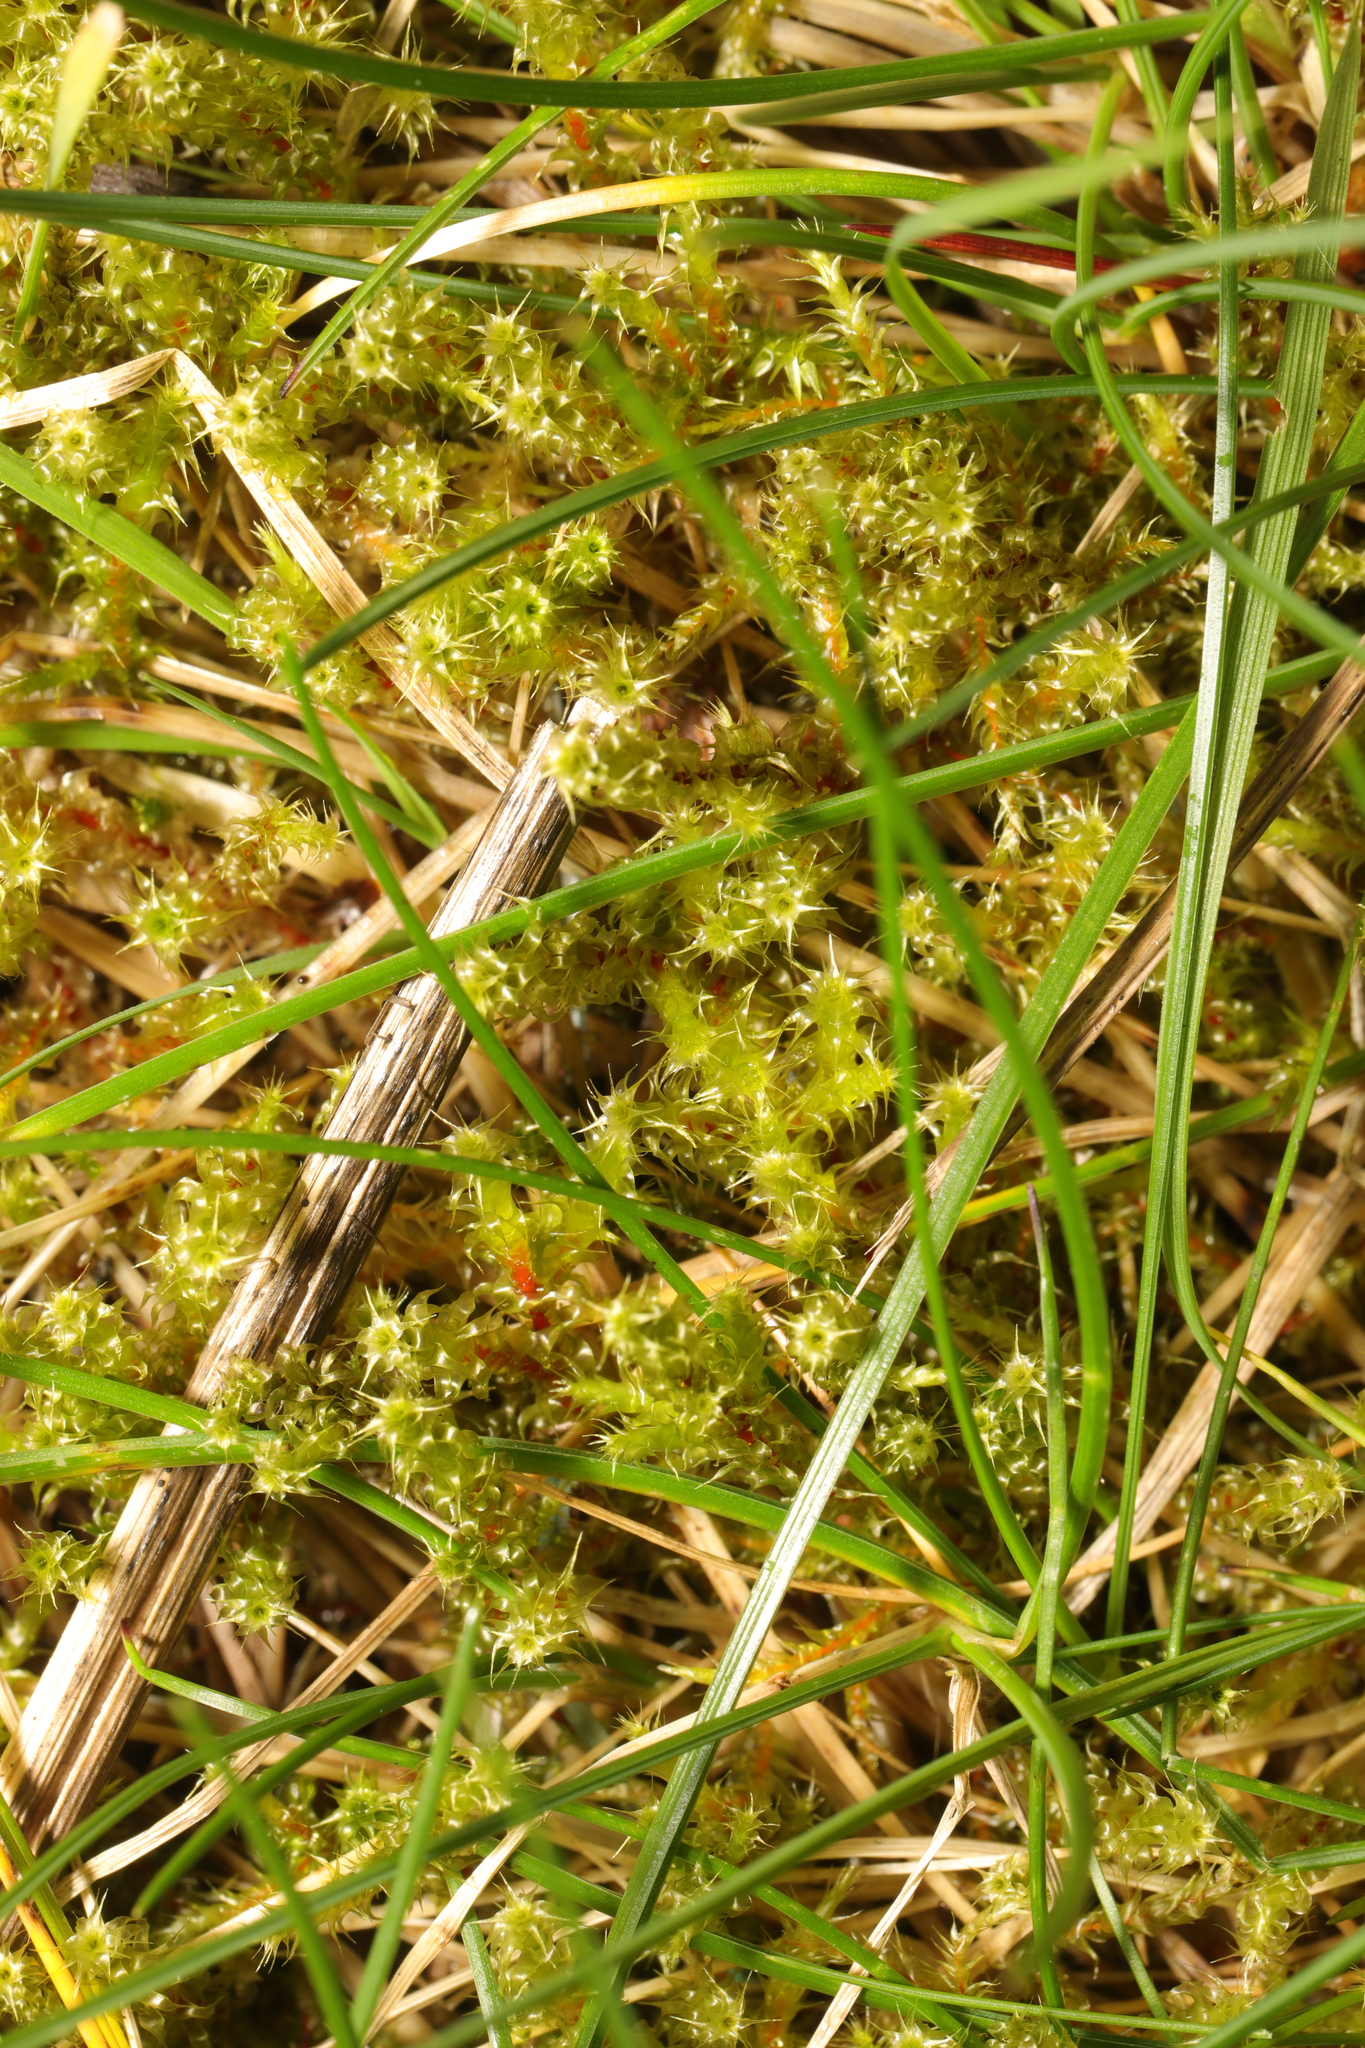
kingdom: Plantae
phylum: Bryophyta
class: Bryopsida
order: Hypnales
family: Hylocomiaceae
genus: Rhytidiadelphus
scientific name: Rhytidiadelphus squarrosus
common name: Springy turf-moss
